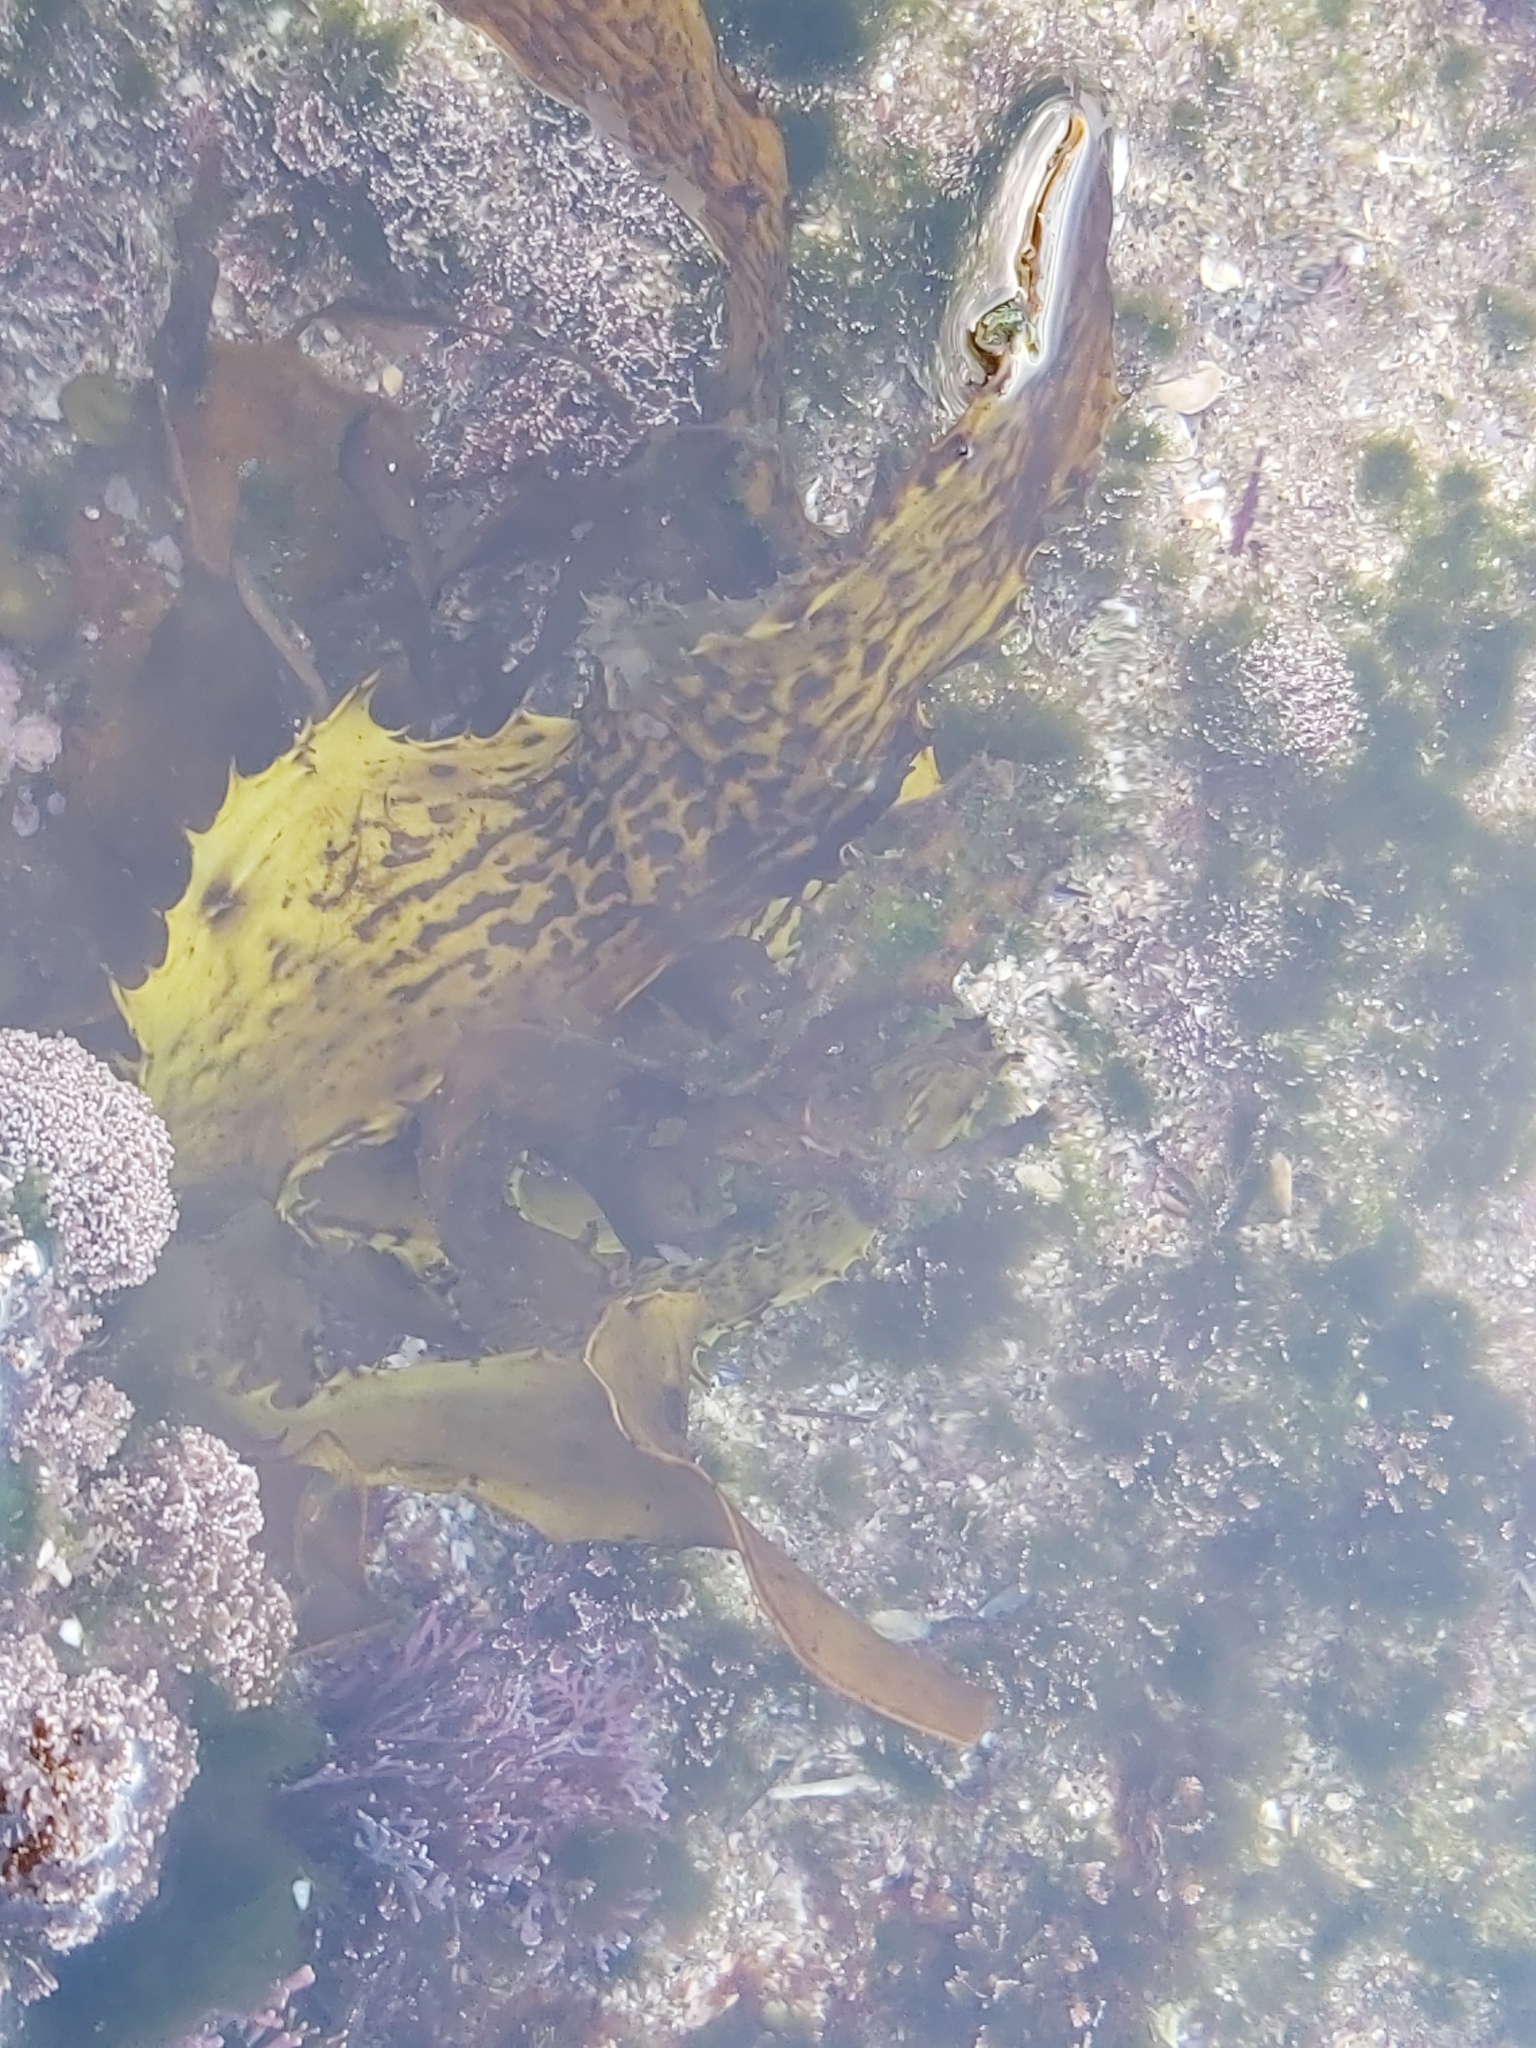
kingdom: Chromista
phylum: Ochrophyta
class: Phaeophyceae
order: Laminariales
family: Lessoniaceae
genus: Ecklonia
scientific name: Ecklonia radiata
